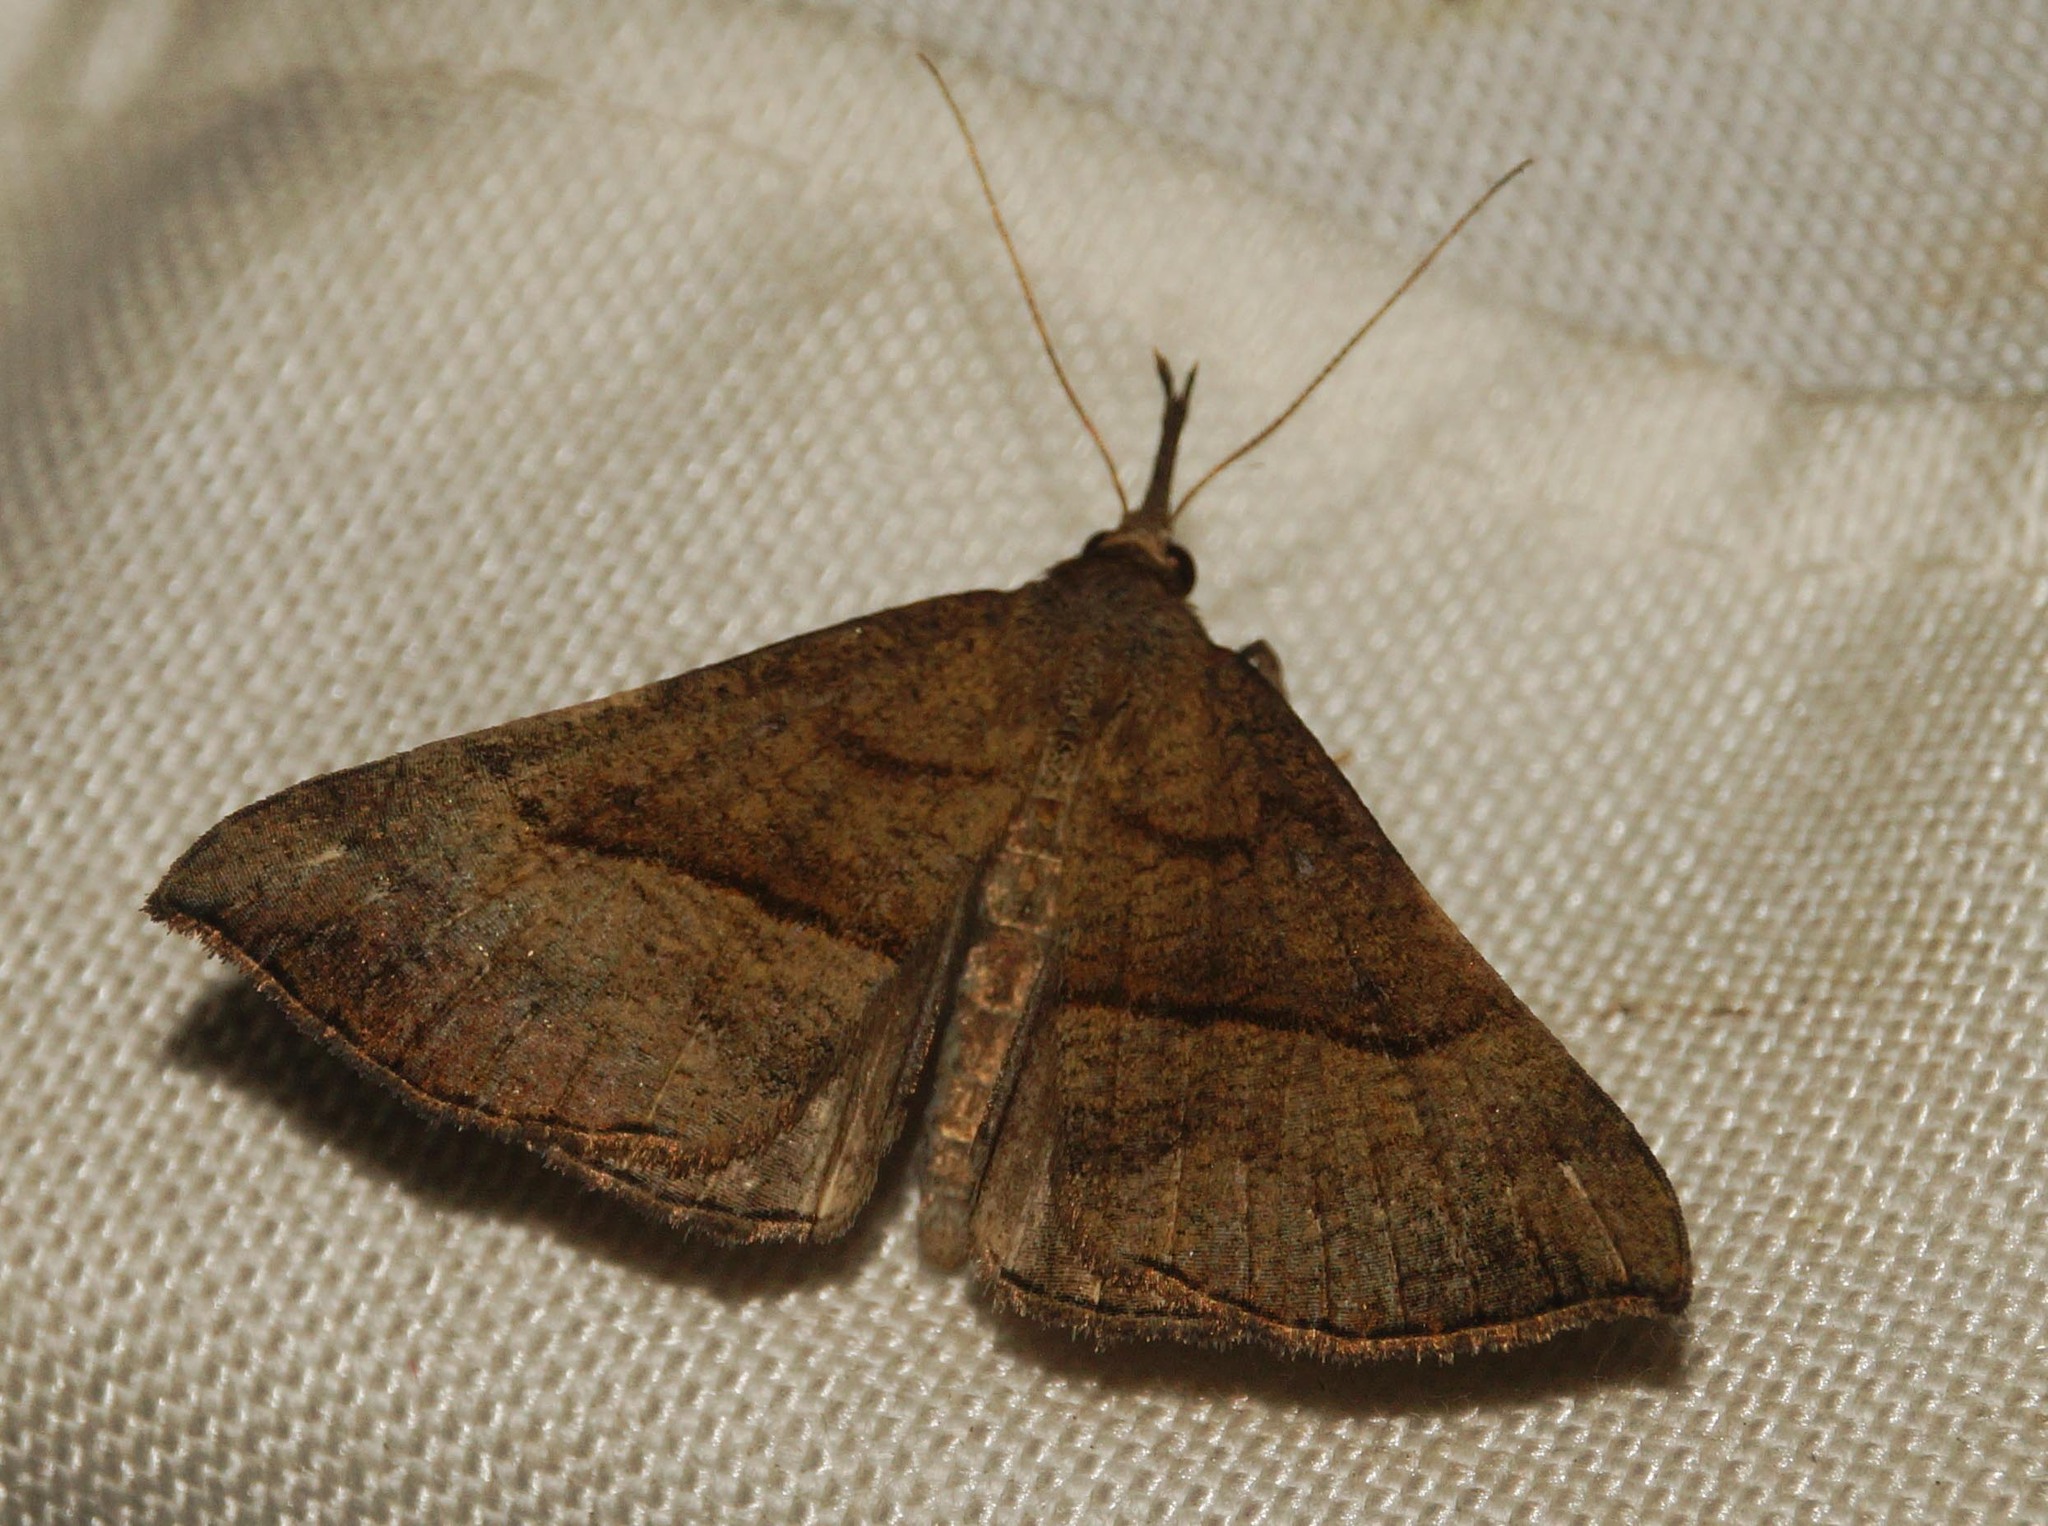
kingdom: Animalia
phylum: Arthropoda
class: Insecta
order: Lepidoptera
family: Erebidae
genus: Hypena
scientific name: Hypena proboscidalis
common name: Snout
